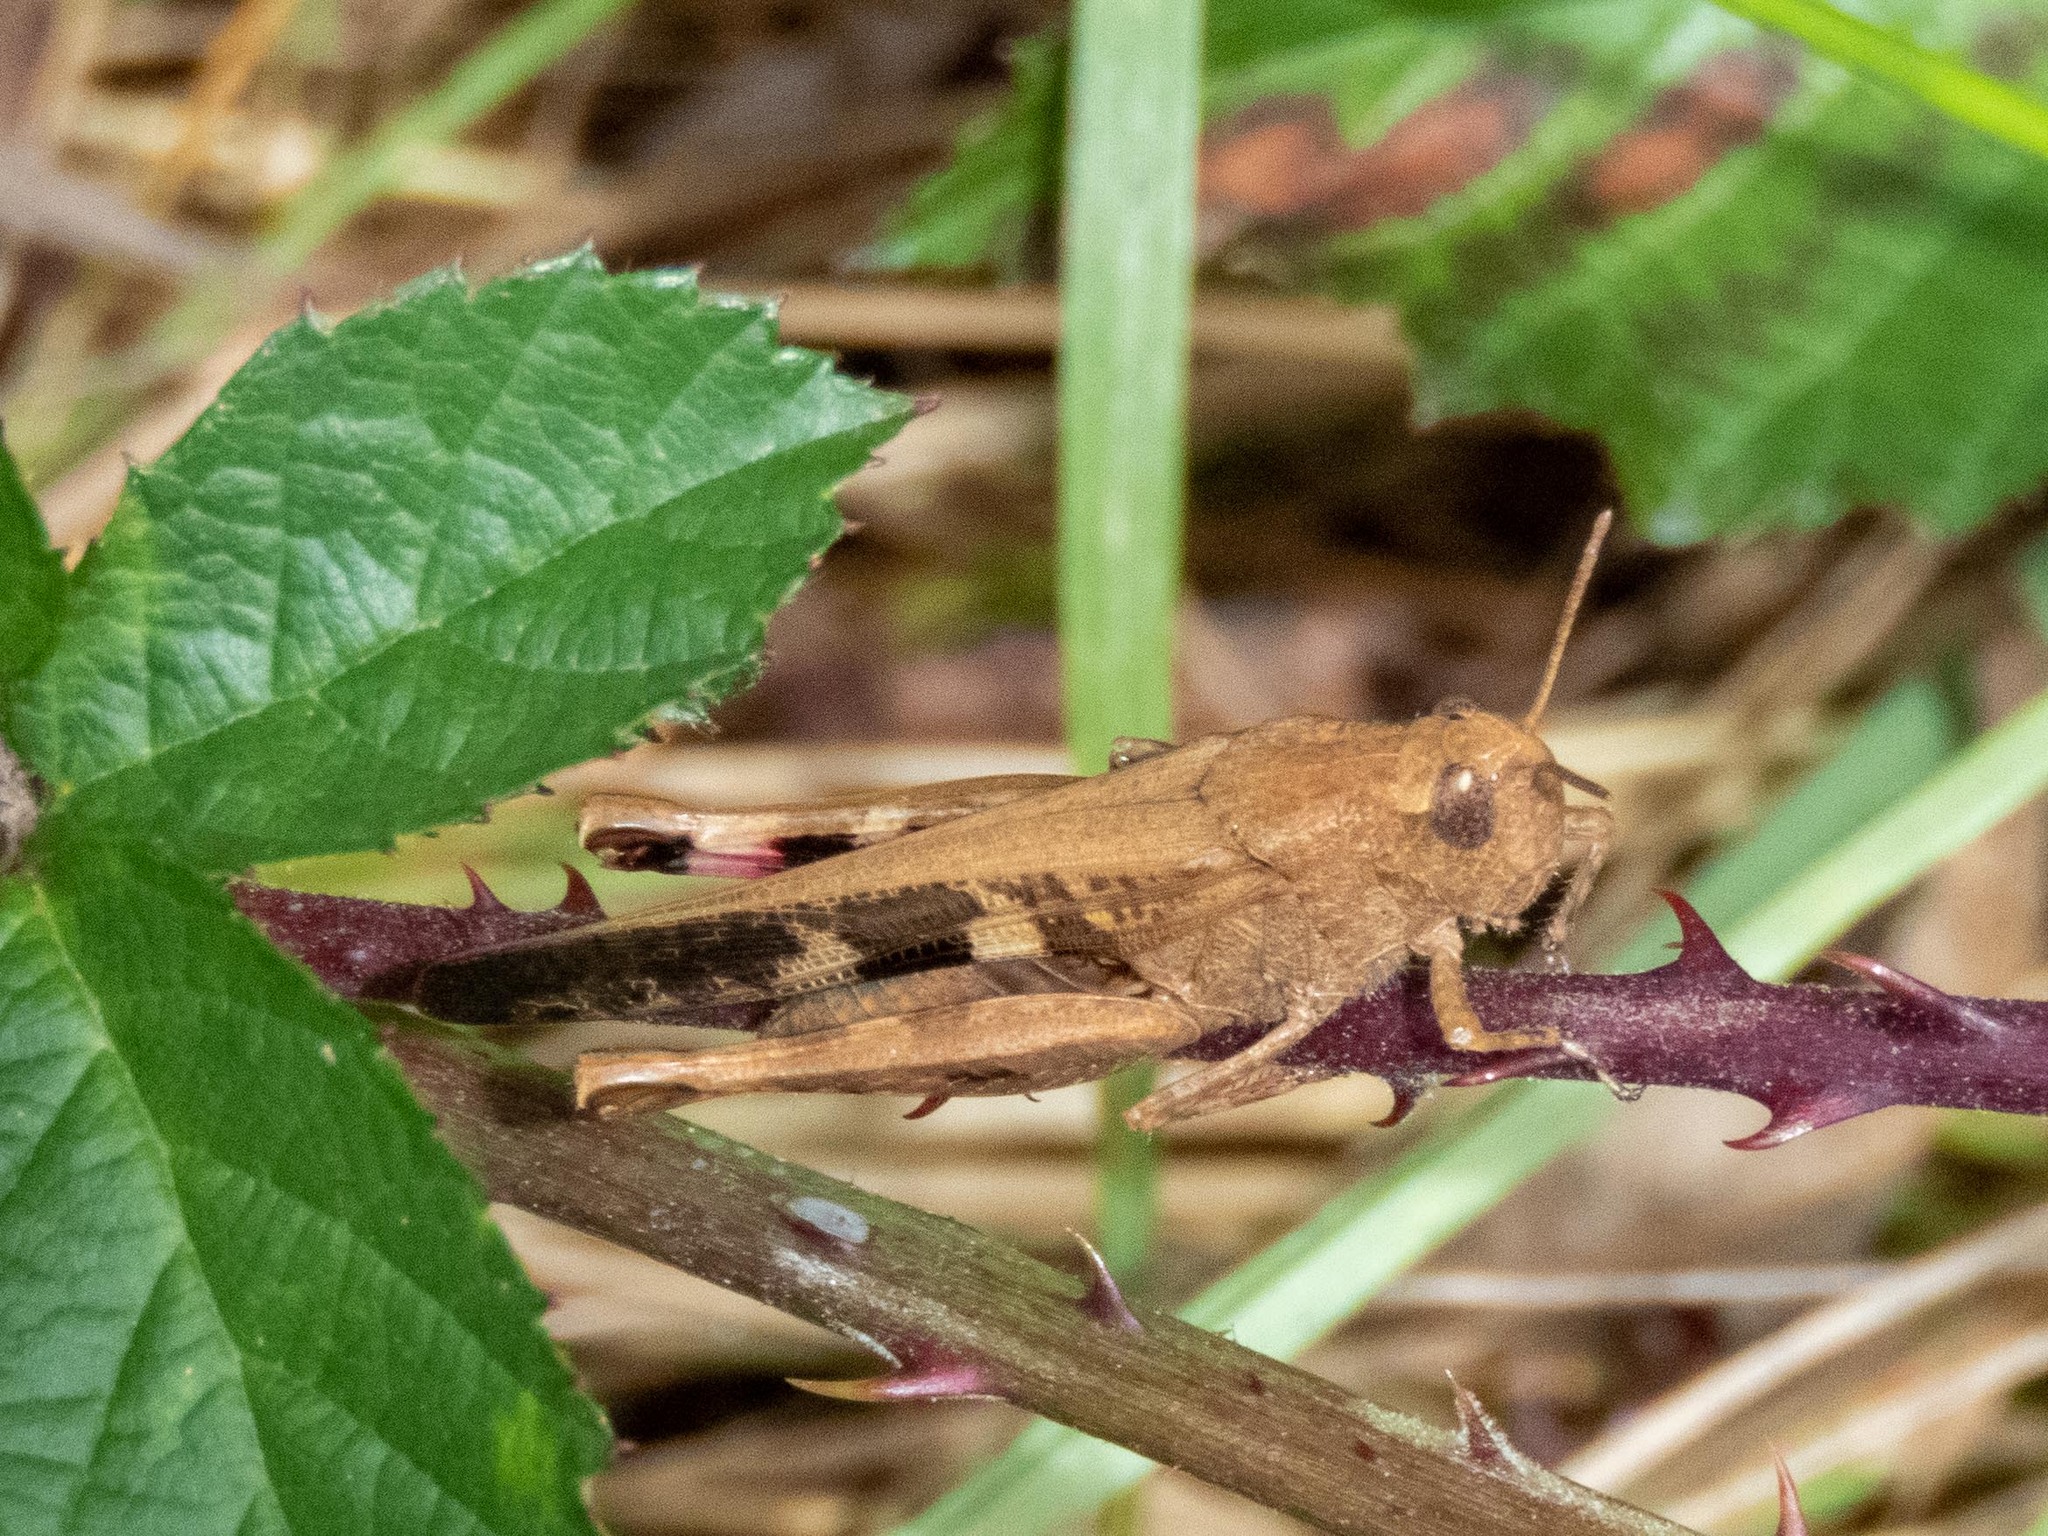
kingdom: Animalia
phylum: Arthropoda
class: Insecta
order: Orthoptera
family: Acrididae
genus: Aiolopus
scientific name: Aiolopus strepens
